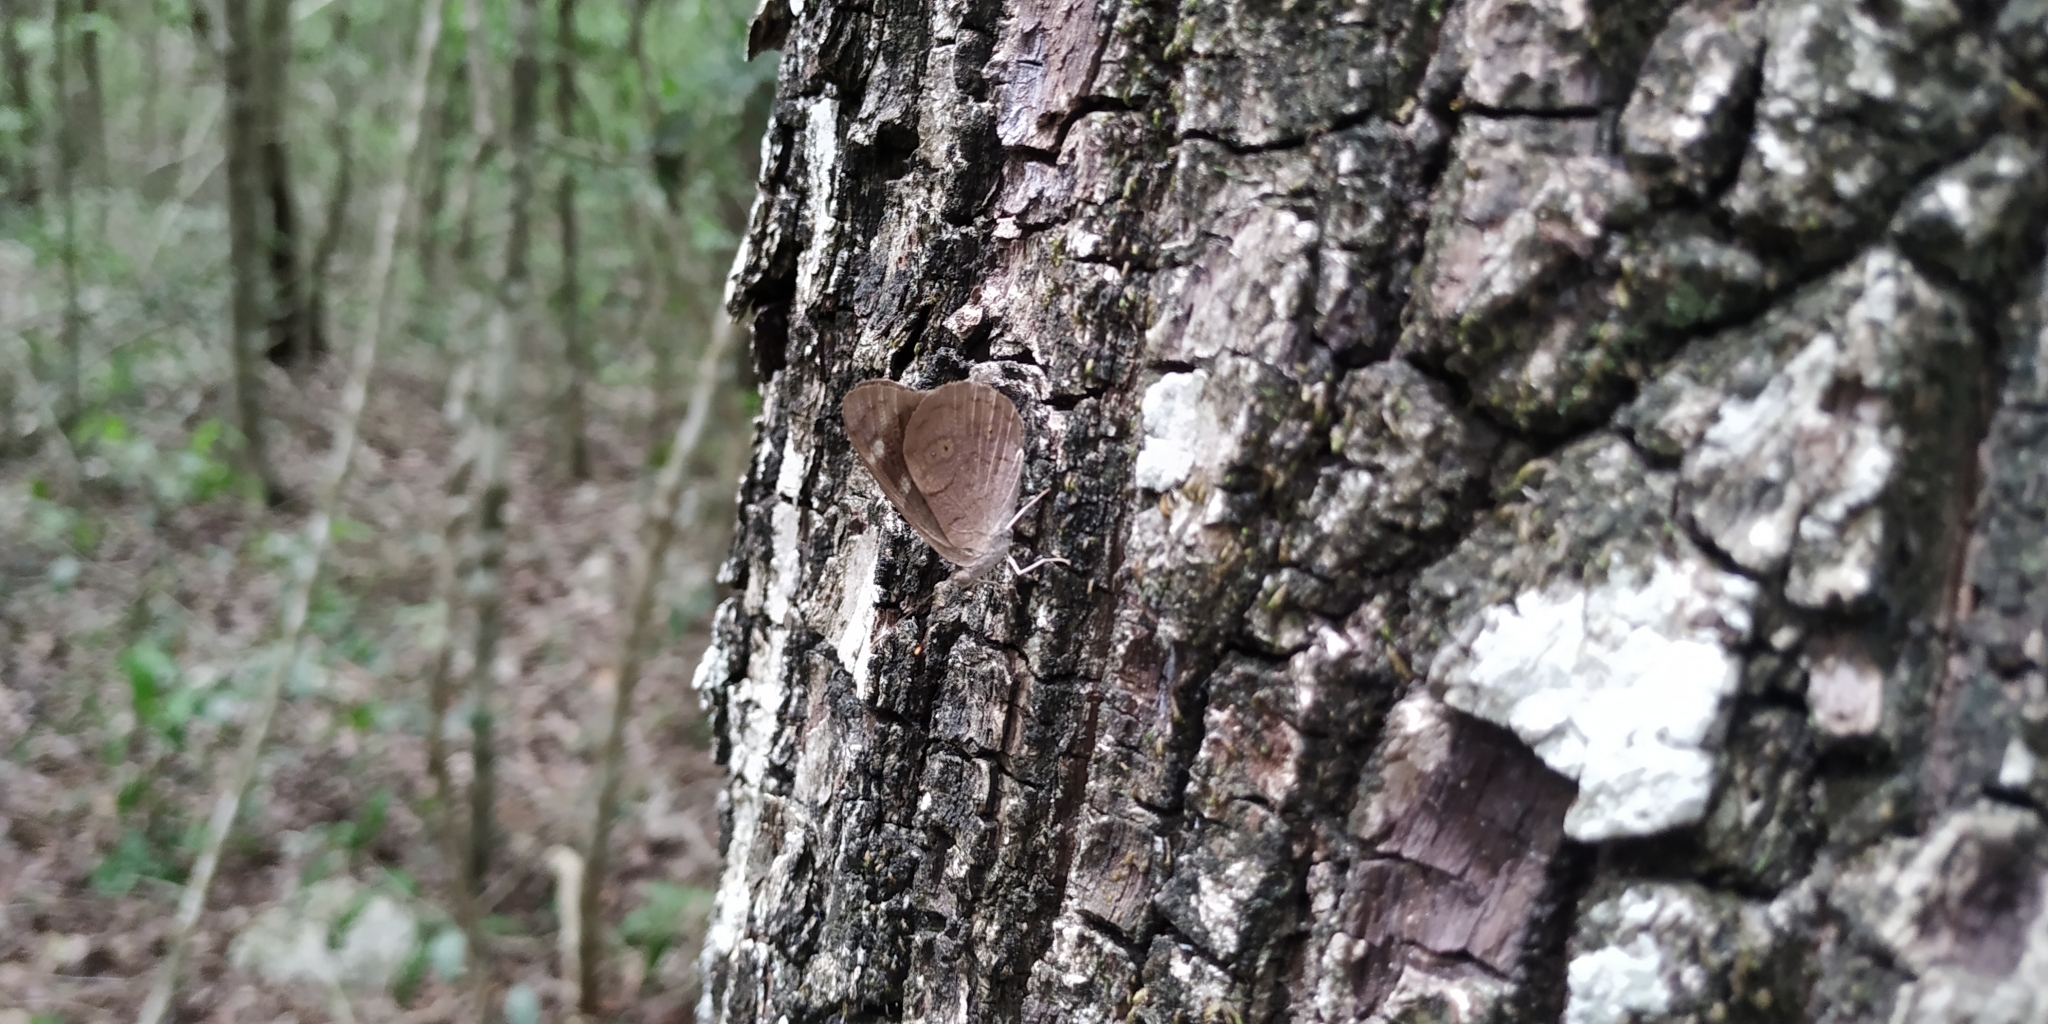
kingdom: Animalia
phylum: Arthropoda
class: Insecta
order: Lepidoptera
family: Nymphalidae
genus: Eunica
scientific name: Eunica monima
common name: Dingy purplewing
